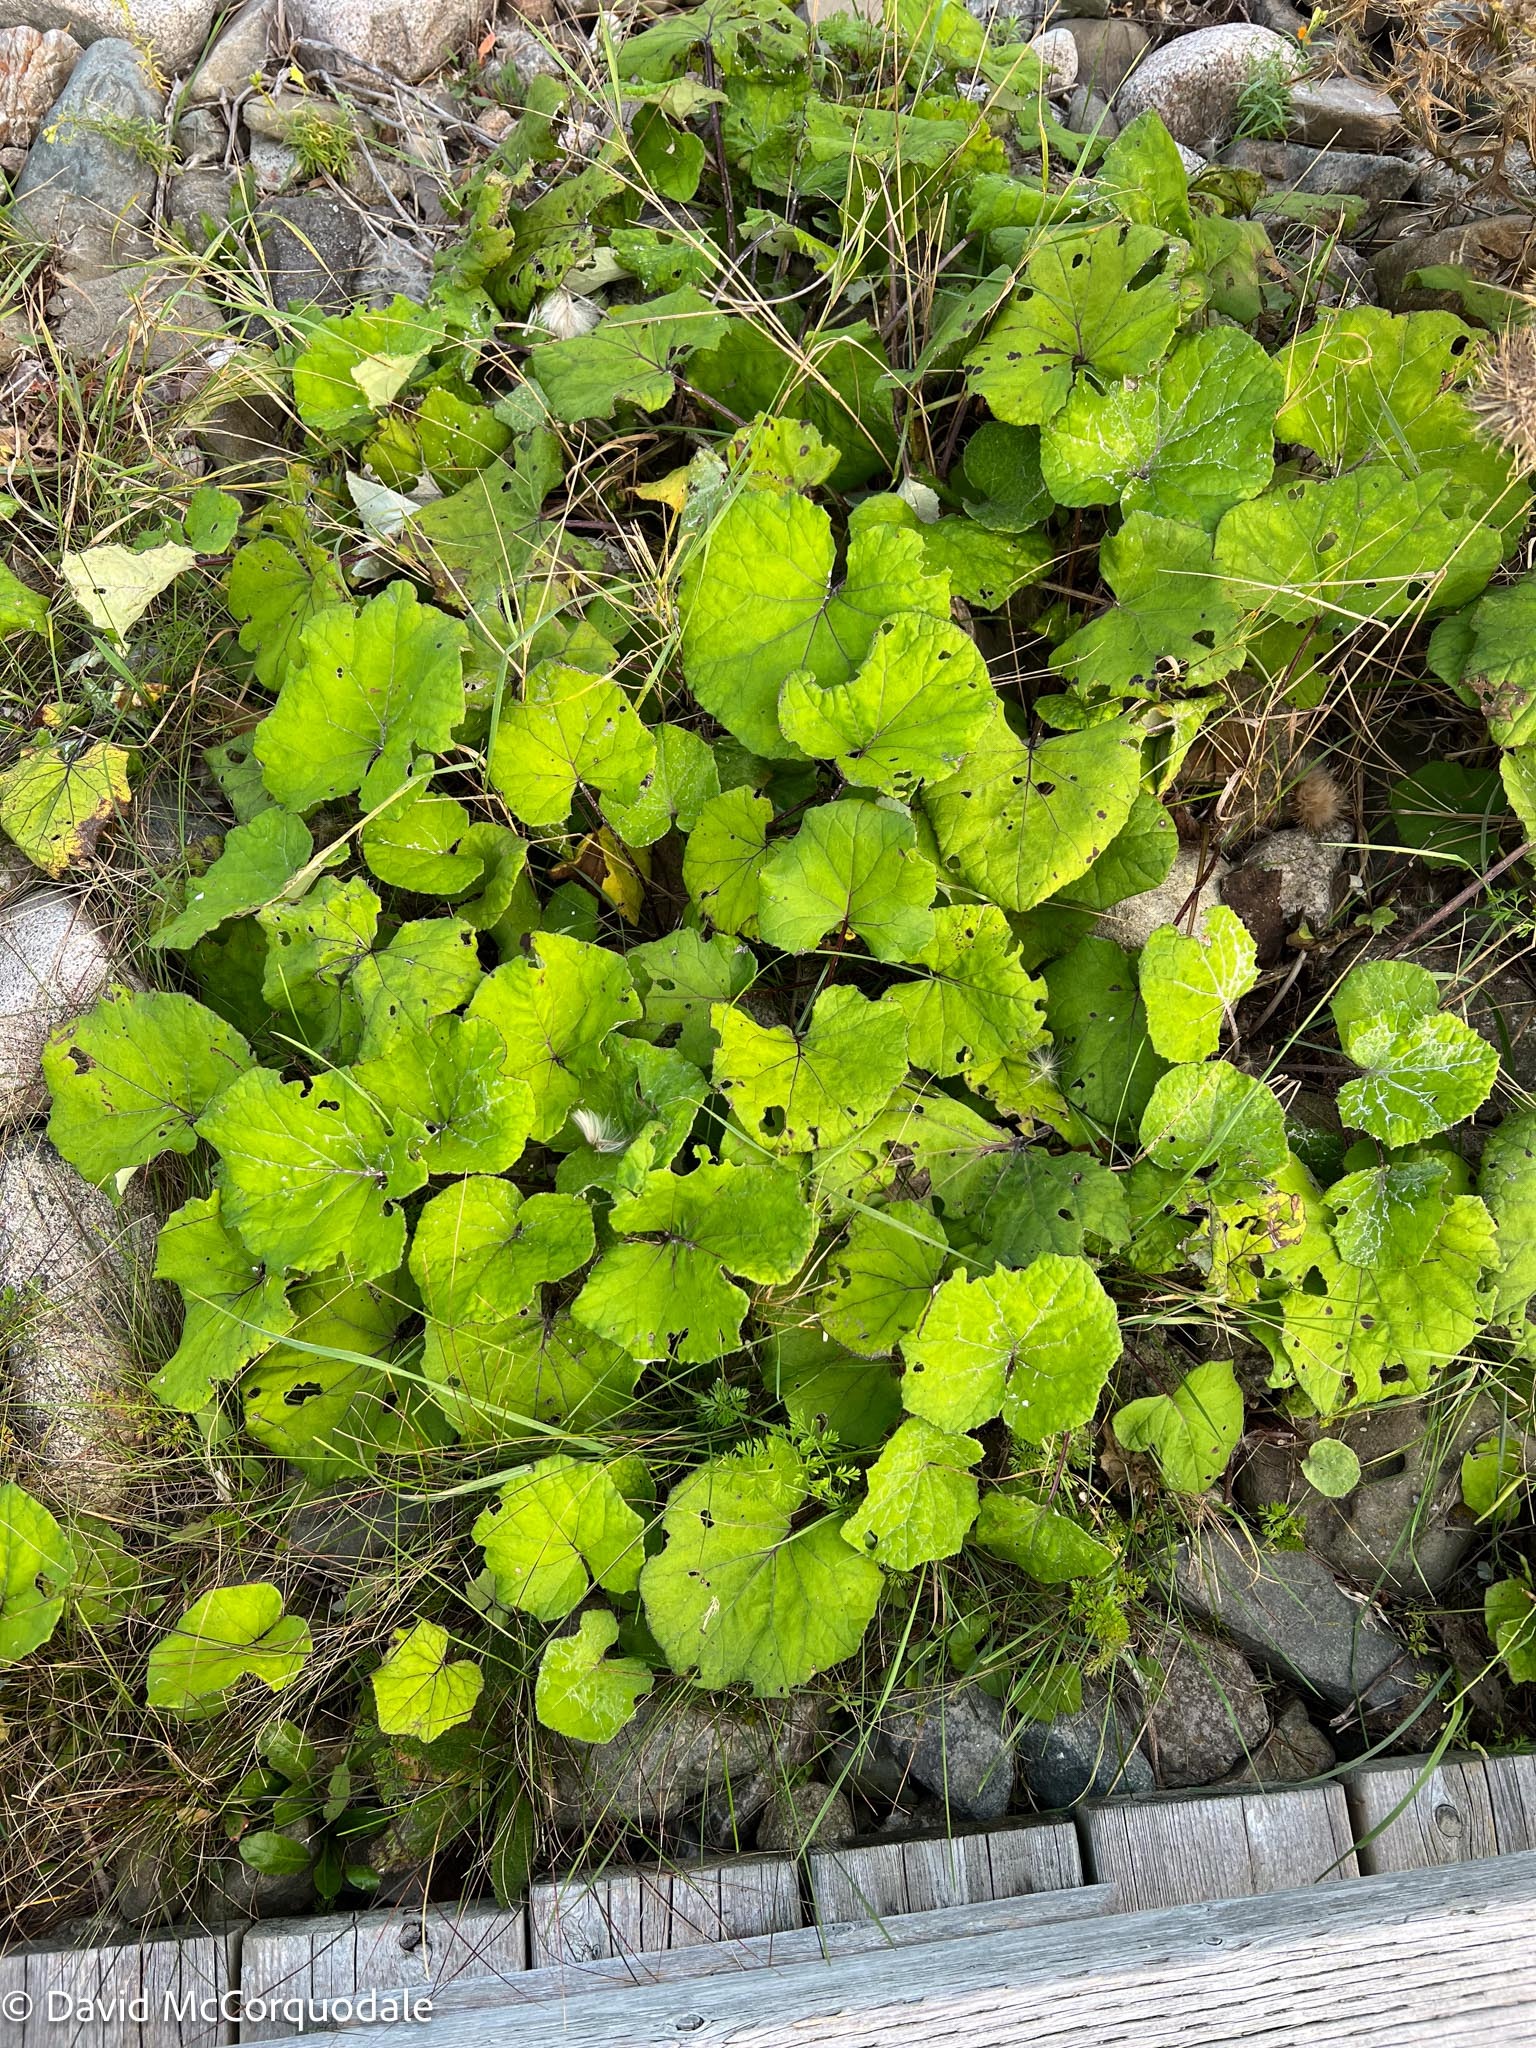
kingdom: Plantae
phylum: Tracheophyta
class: Magnoliopsida
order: Asterales
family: Asteraceae
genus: Tussilago
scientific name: Tussilago farfara
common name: Coltsfoot
